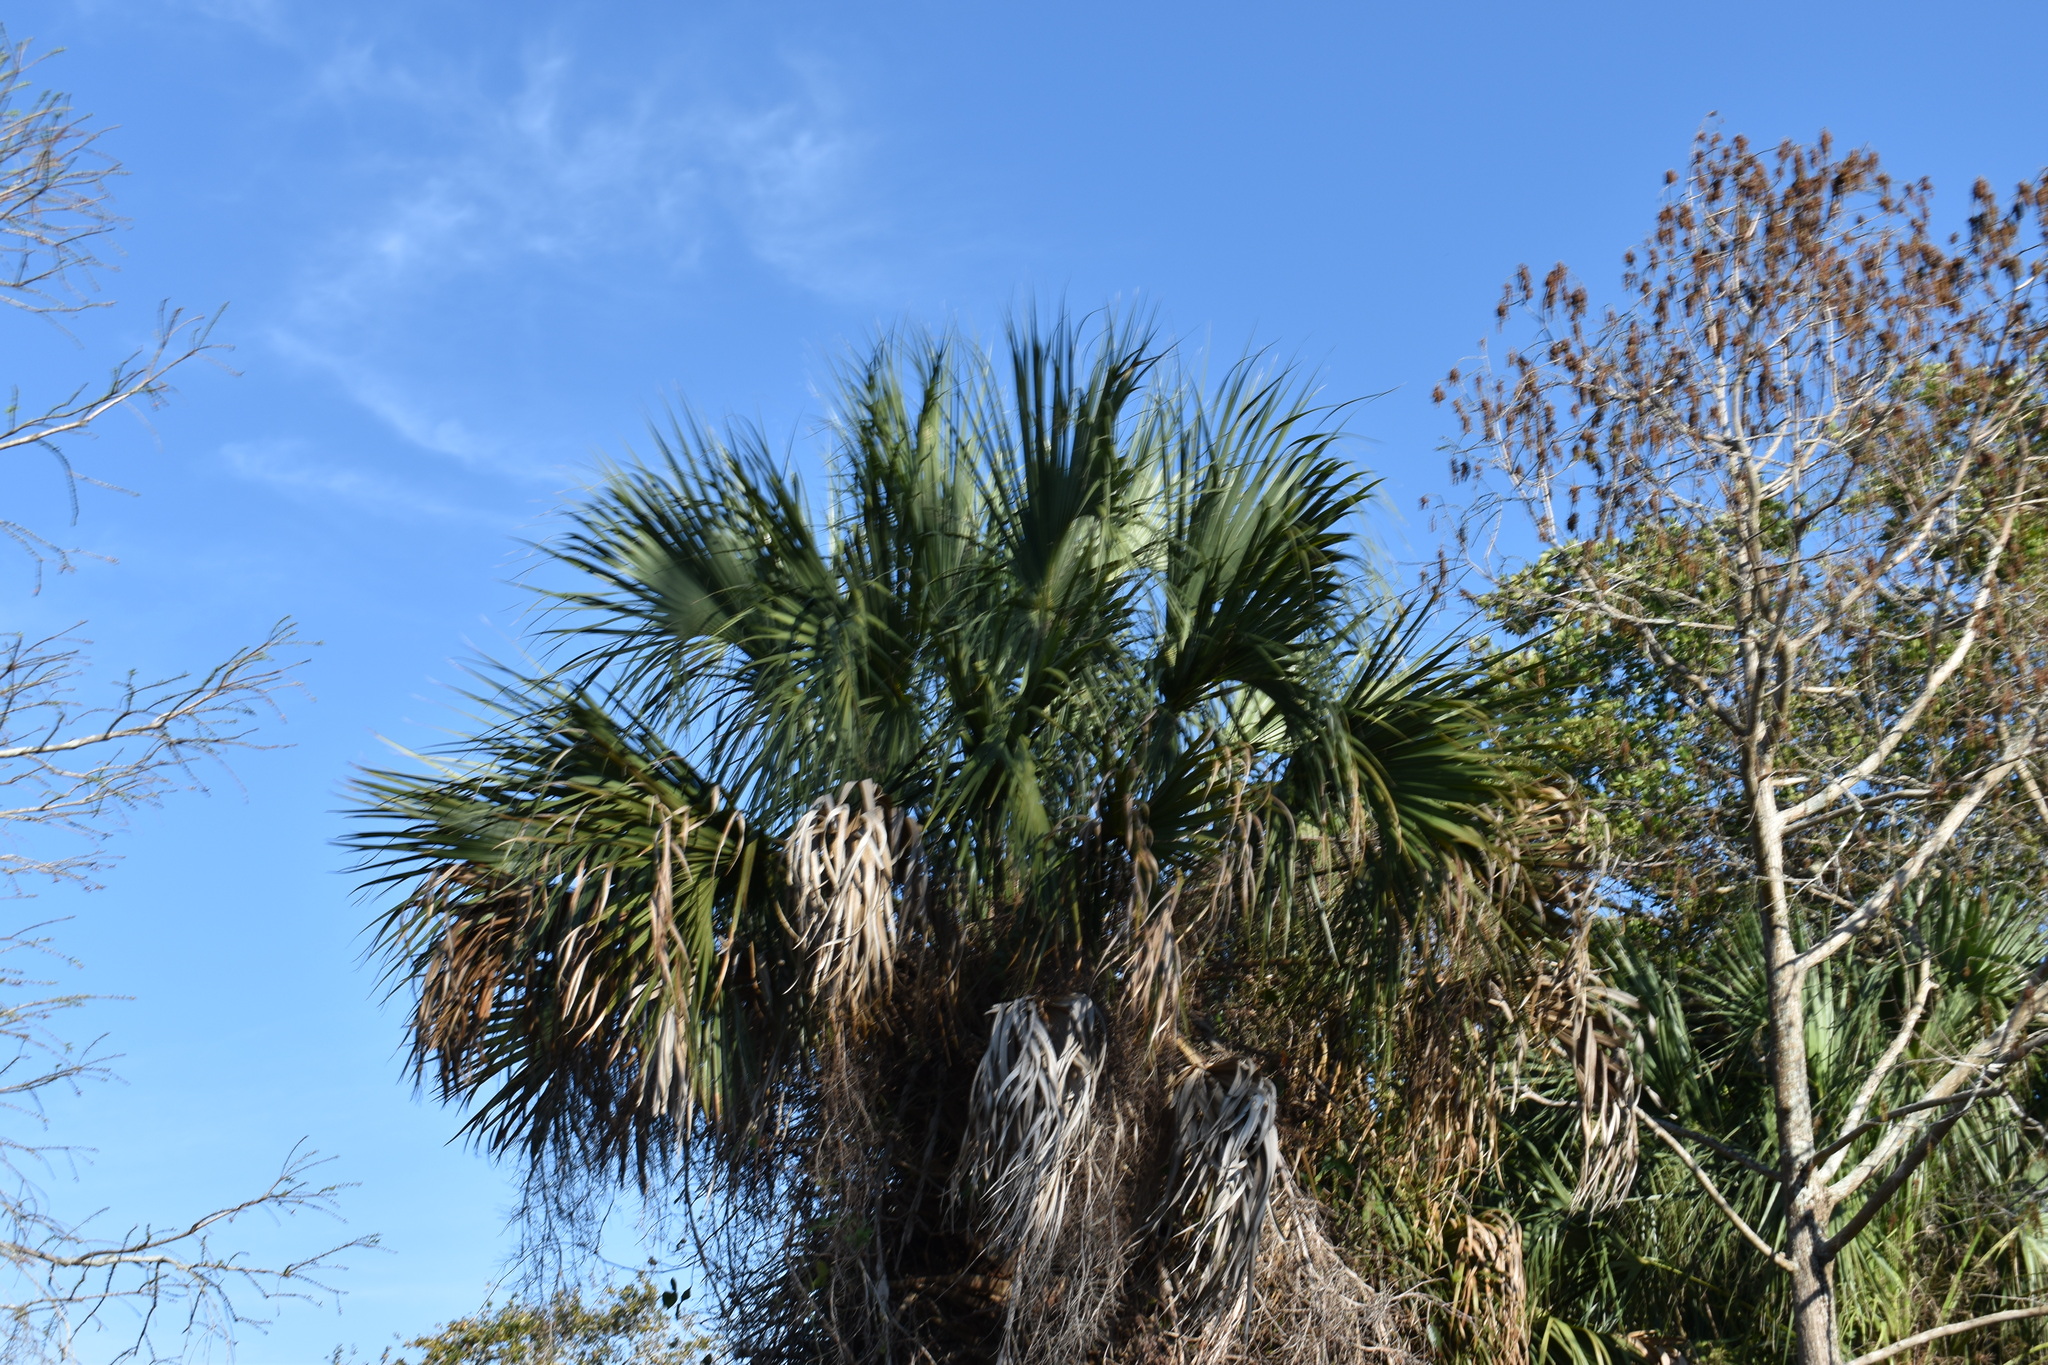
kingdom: Plantae
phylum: Tracheophyta
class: Liliopsida
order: Arecales
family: Arecaceae
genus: Sabal
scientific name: Sabal palmetto
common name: Blue palmetto
